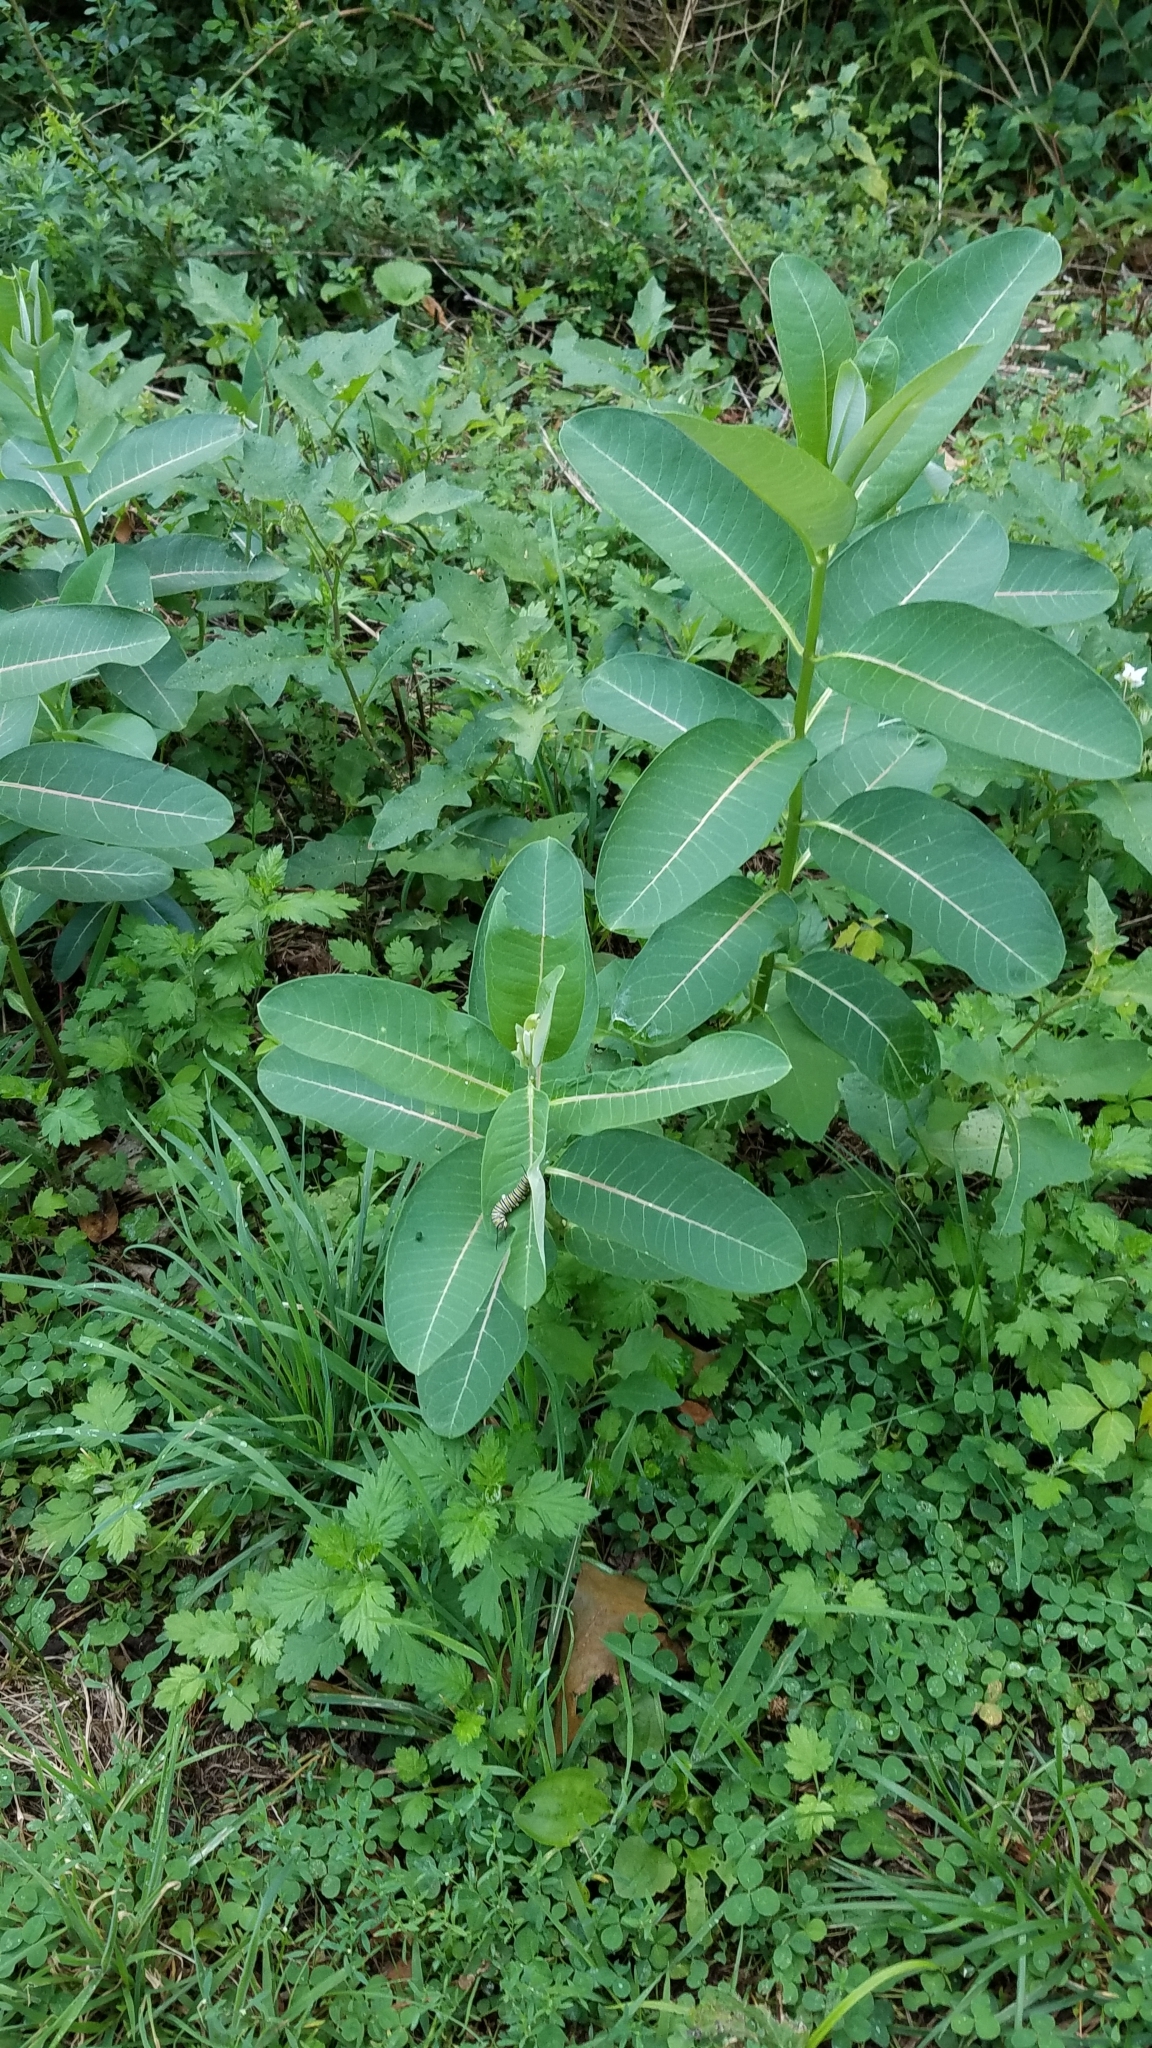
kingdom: Animalia
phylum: Arthropoda
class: Insecta
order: Lepidoptera
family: Nymphalidae
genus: Danaus
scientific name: Danaus plexippus
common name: Monarch
